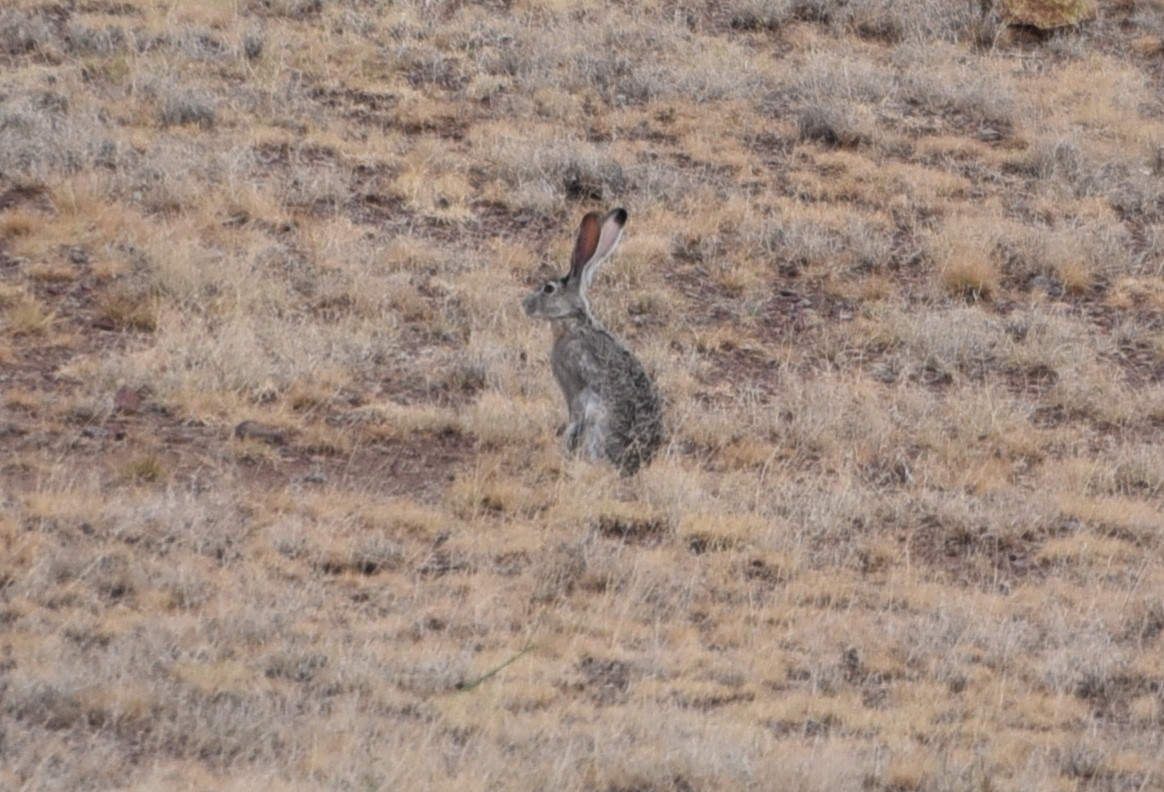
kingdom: Animalia
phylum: Chordata
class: Mammalia
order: Lagomorpha
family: Leporidae
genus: Lepus
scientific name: Lepus californicus
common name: Black-tailed jackrabbit
